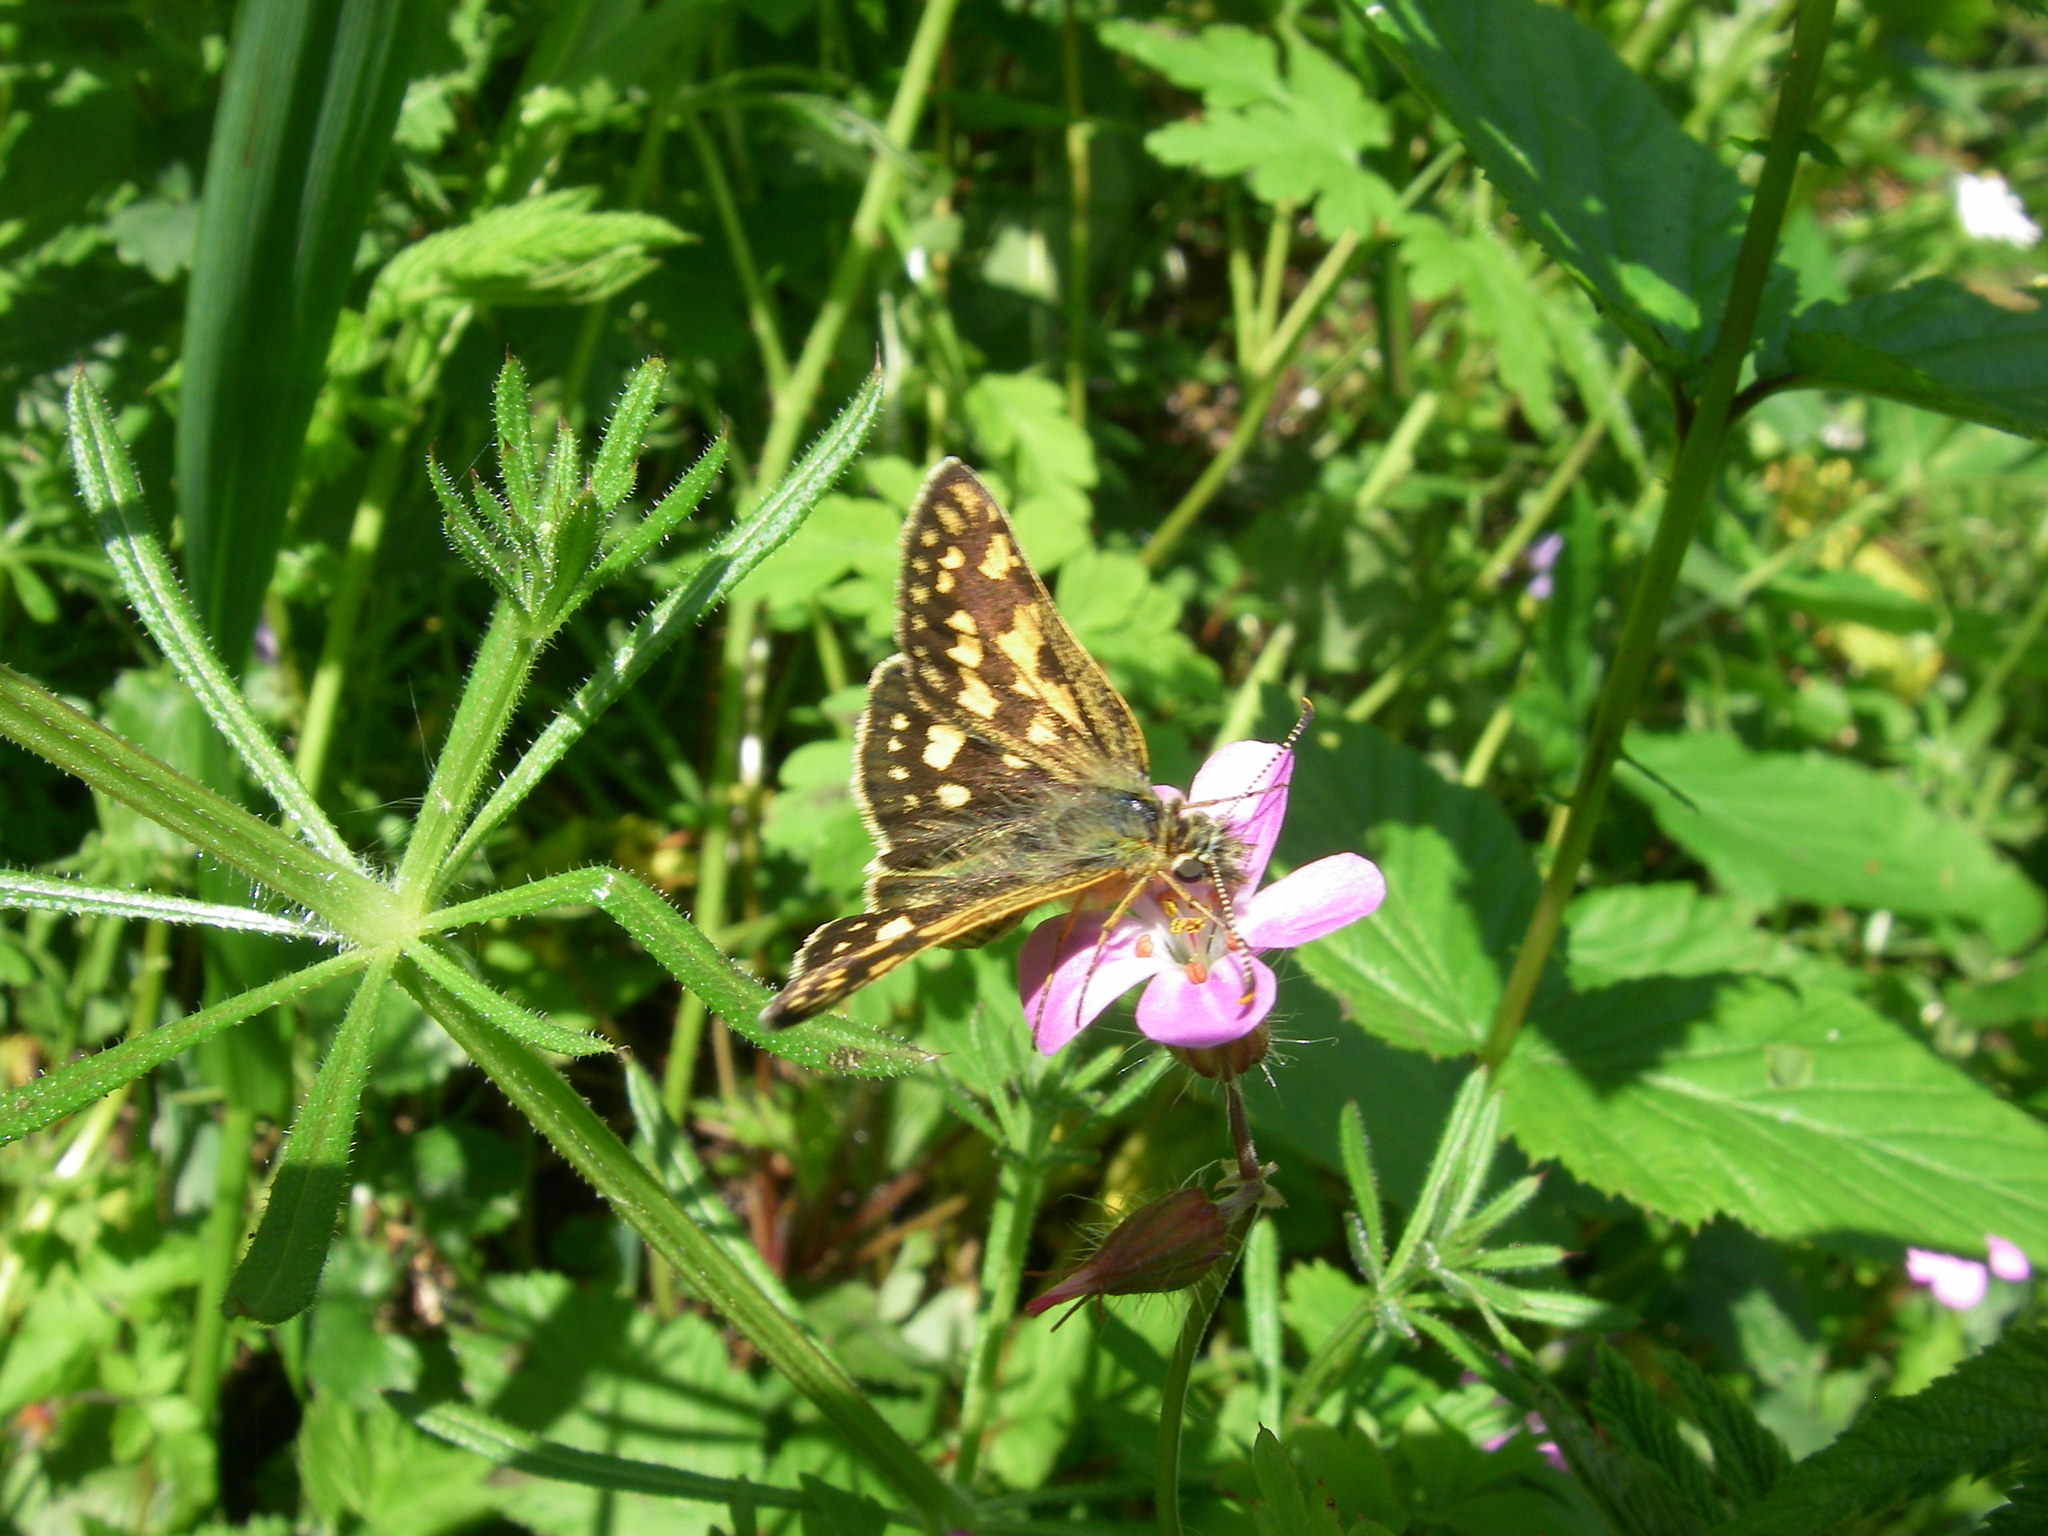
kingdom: Animalia
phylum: Arthropoda
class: Insecta
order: Lepidoptera
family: Hesperiidae
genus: Carterocephalus
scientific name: Carterocephalus palaemon
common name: Chequered skipper
